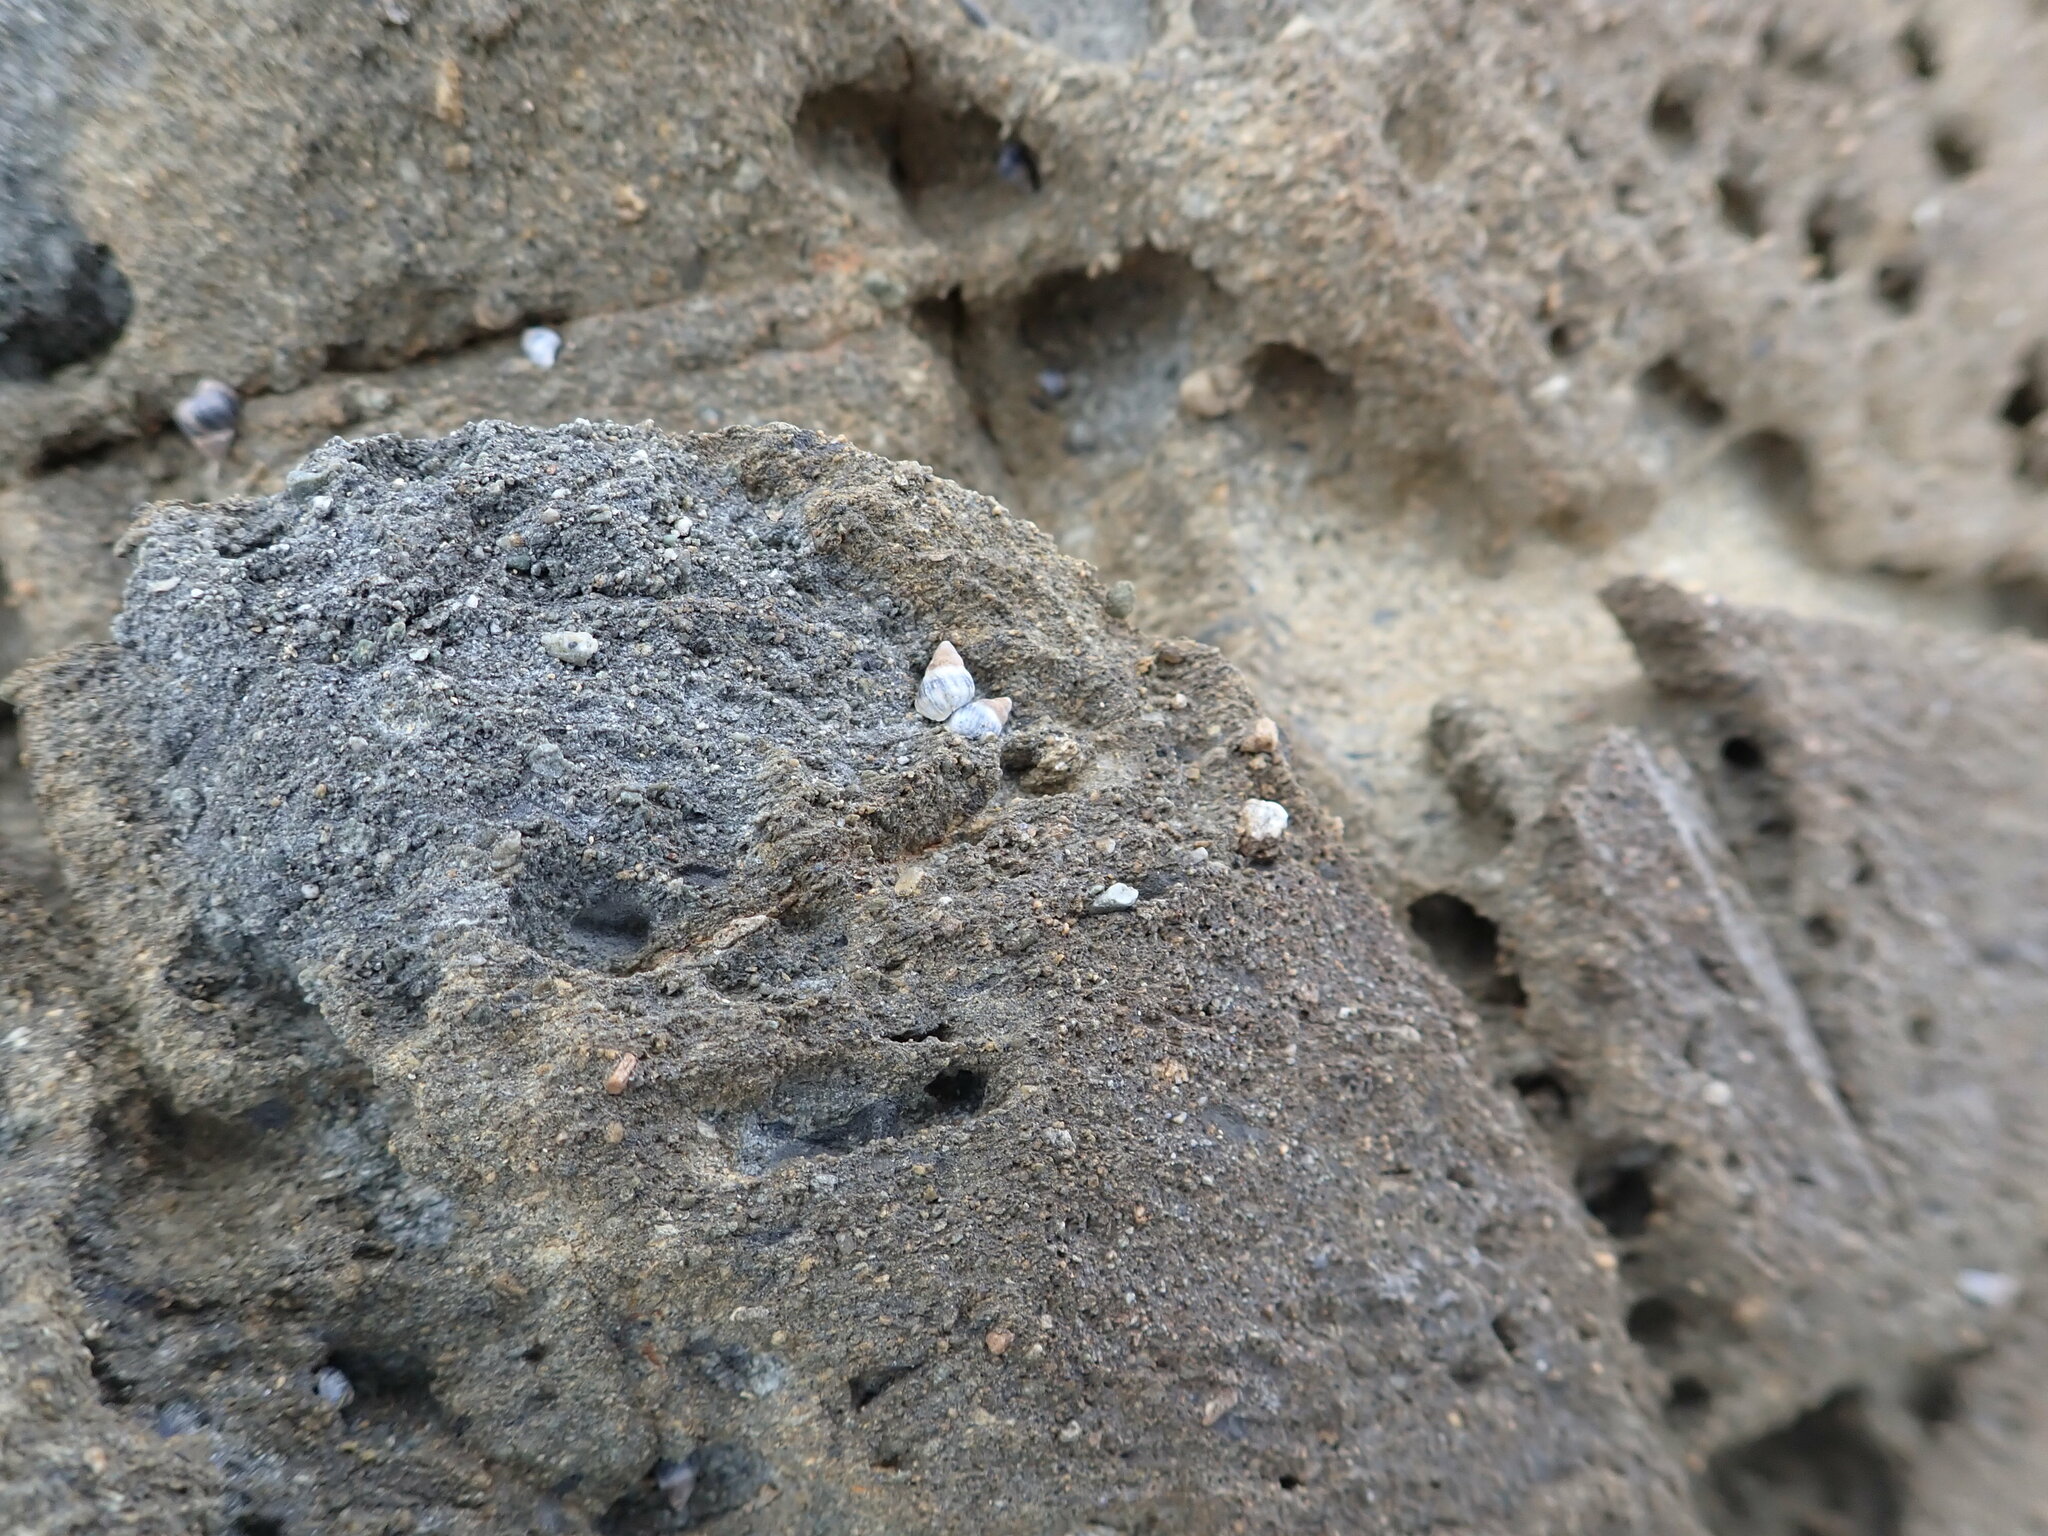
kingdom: Animalia
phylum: Mollusca
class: Gastropoda
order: Littorinimorpha
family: Littorinidae
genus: Austrolittorina
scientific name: Austrolittorina antipodum
